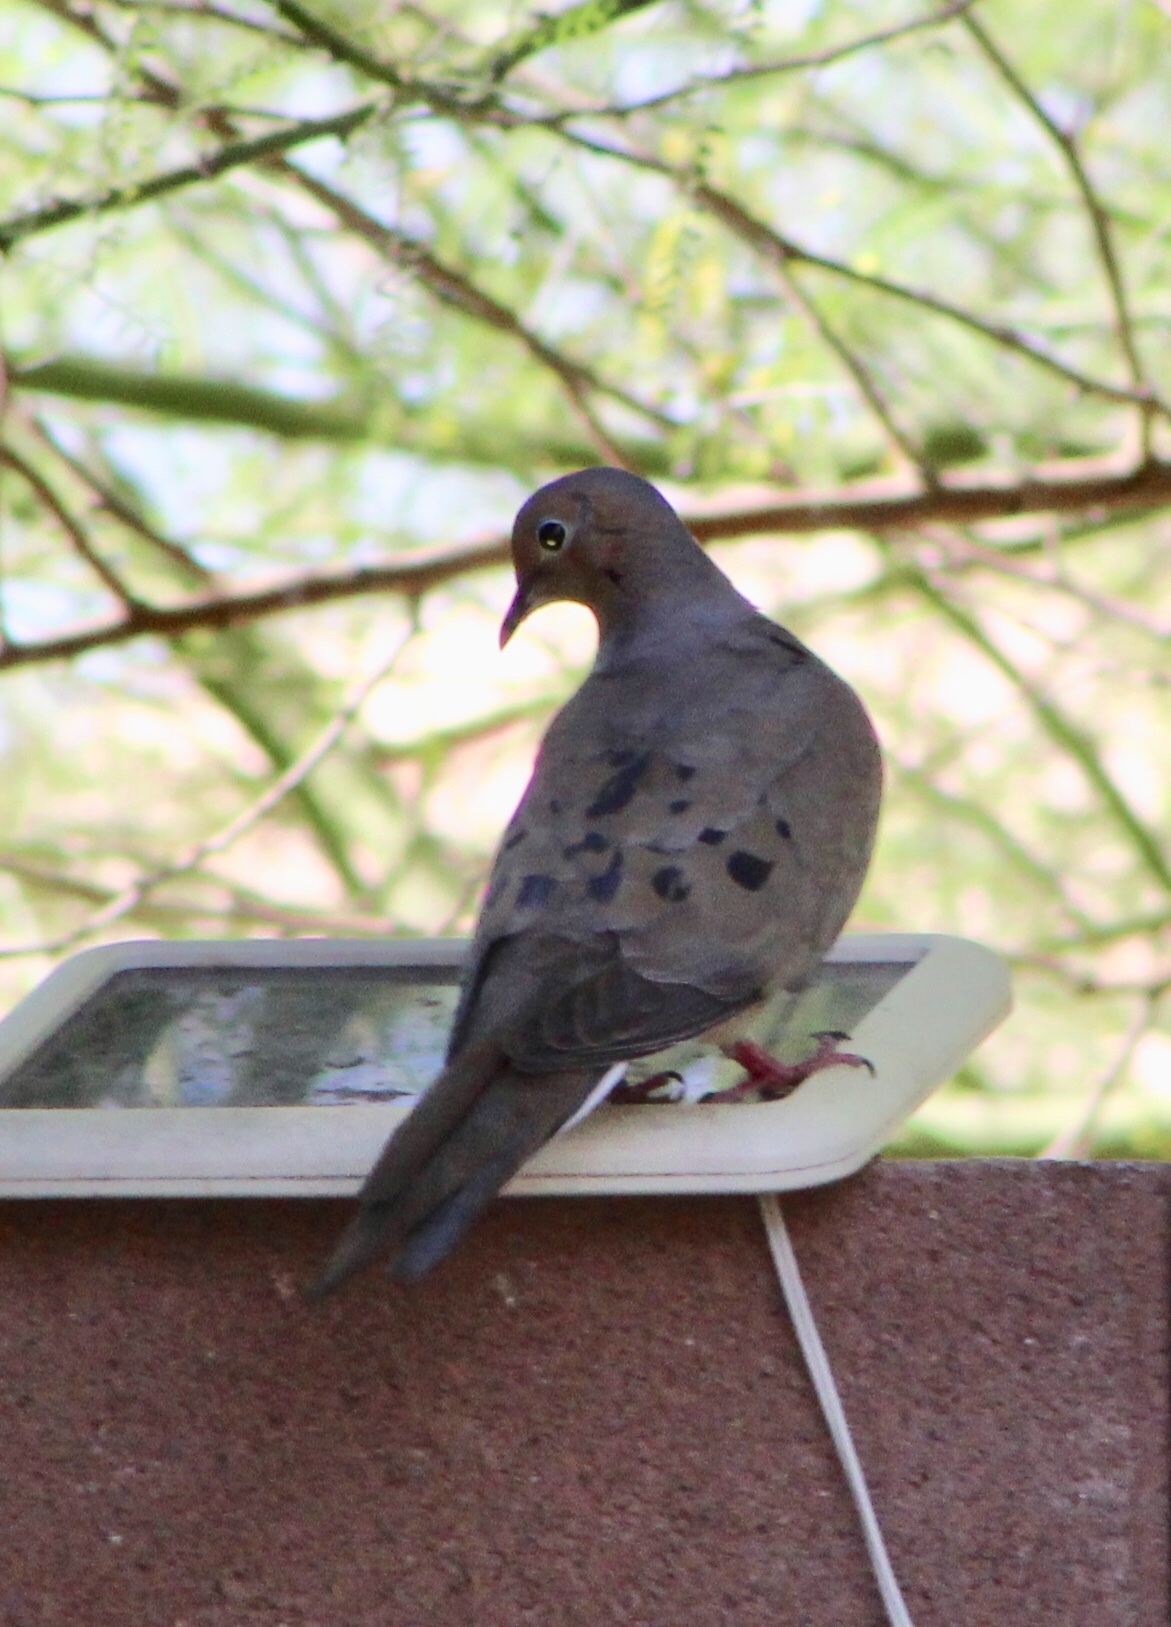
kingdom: Animalia
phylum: Chordata
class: Aves
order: Columbiformes
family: Columbidae
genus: Zenaida
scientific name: Zenaida macroura
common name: Mourning dove
